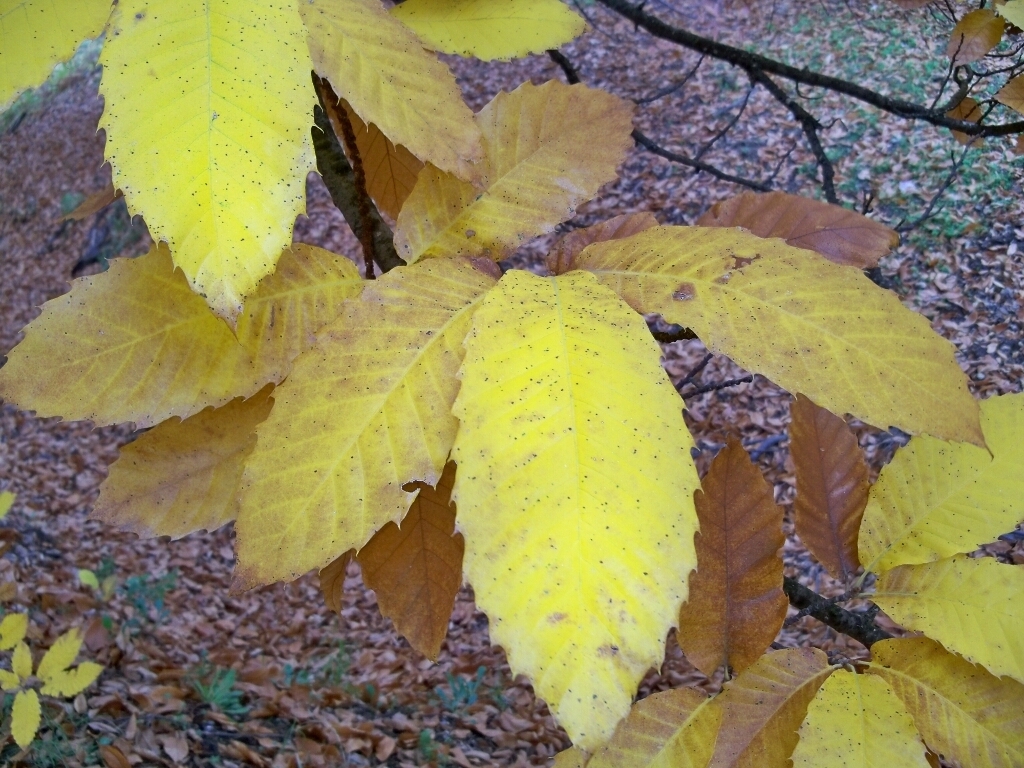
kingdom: Plantae
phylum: Tracheophyta
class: Magnoliopsida
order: Fagales
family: Fagaceae
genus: Castanea
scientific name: Castanea sativa
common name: Sweet chestnut
